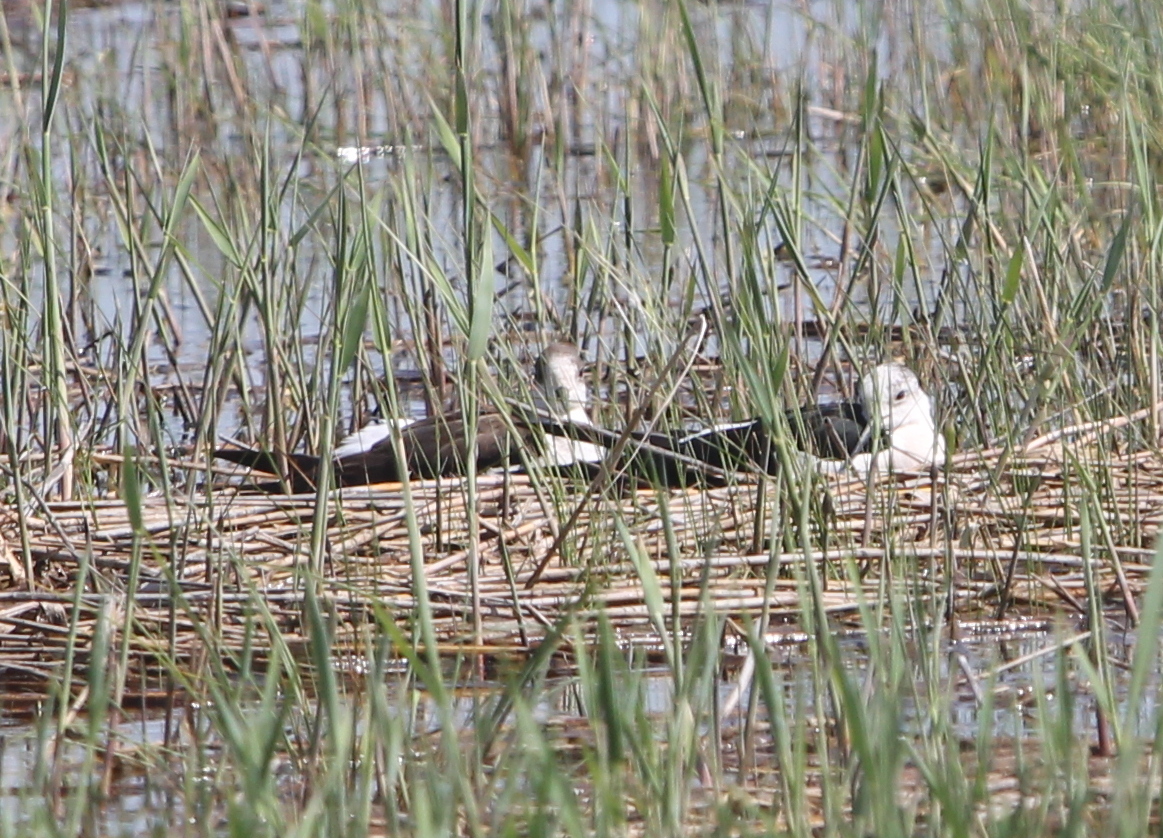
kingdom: Animalia
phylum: Chordata
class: Aves
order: Charadriiformes
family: Recurvirostridae
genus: Himantopus
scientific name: Himantopus himantopus
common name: Black-winged stilt
